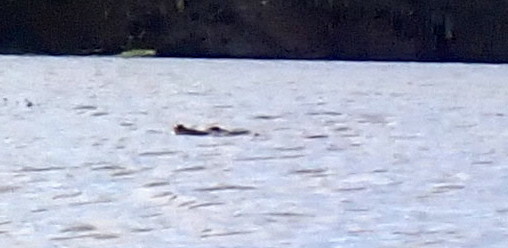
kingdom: Animalia
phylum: Chordata
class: Crocodylia
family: Alligatoridae
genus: Alligator
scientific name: Alligator mississippiensis
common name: American alligator
